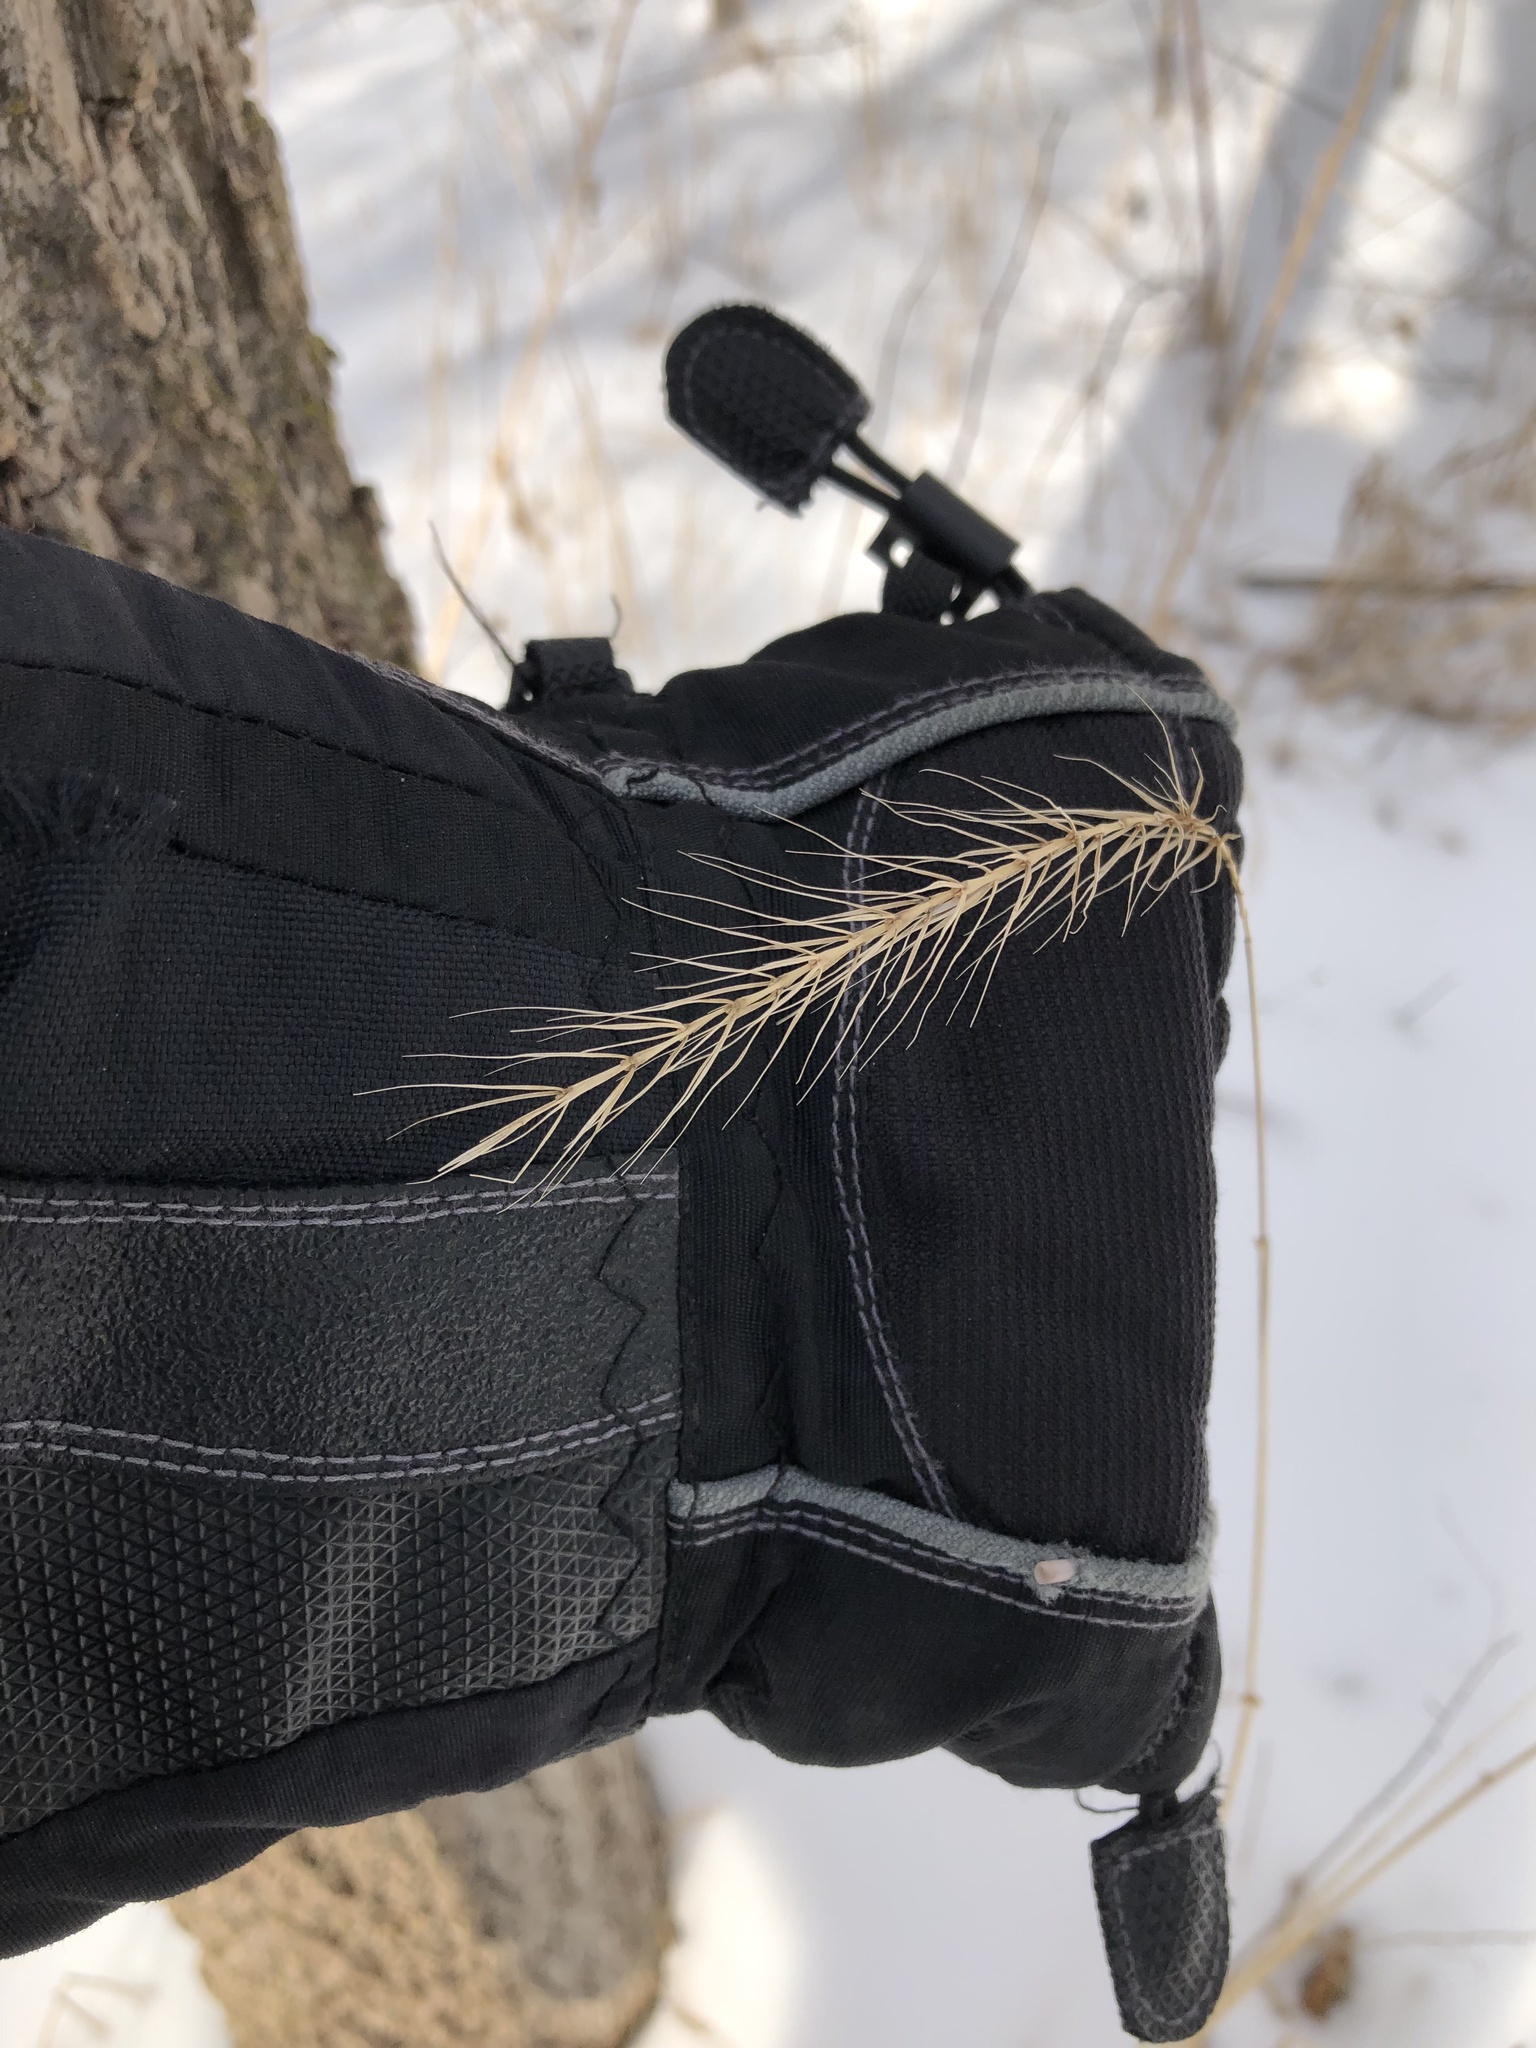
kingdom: Plantae
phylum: Tracheophyta
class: Liliopsida
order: Poales
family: Poaceae
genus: Elymus
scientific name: Elymus riparius
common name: Eastern riverbank wild rye
